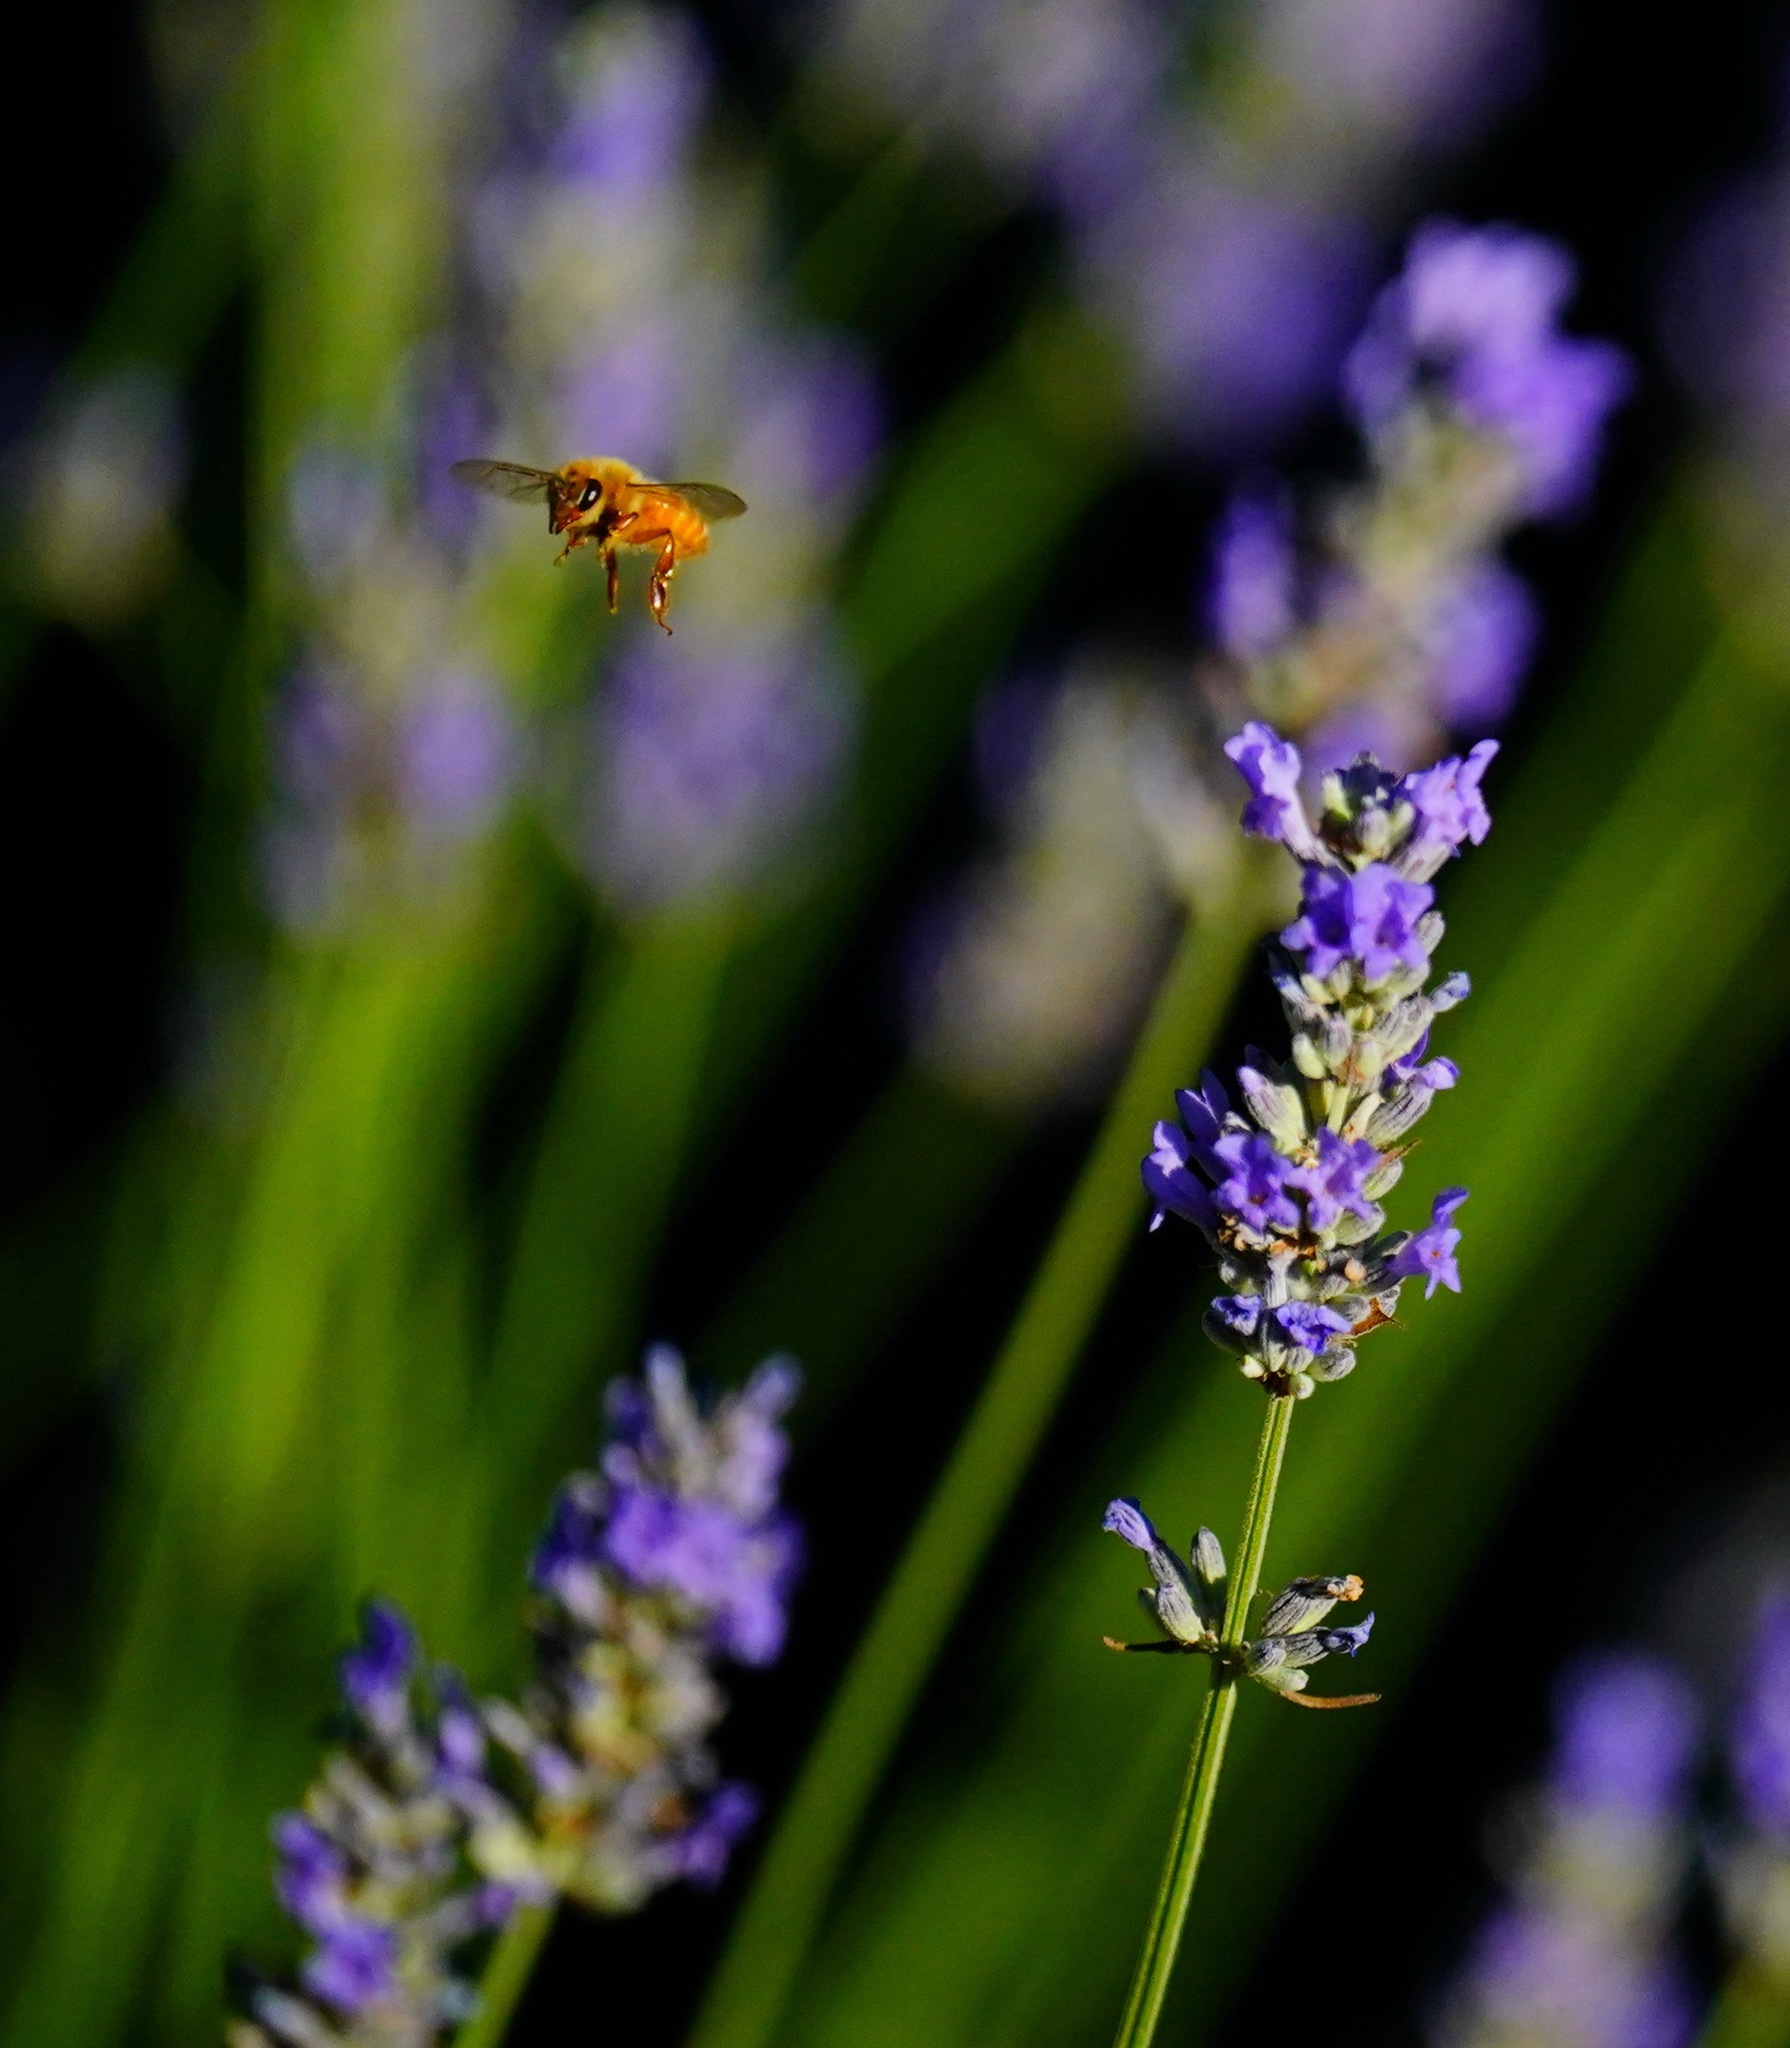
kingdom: Animalia
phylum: Arthropoda
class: Insecta
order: Hymenoptera
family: Apidae
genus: Apis
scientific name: Apis mellifera
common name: Honey bee
